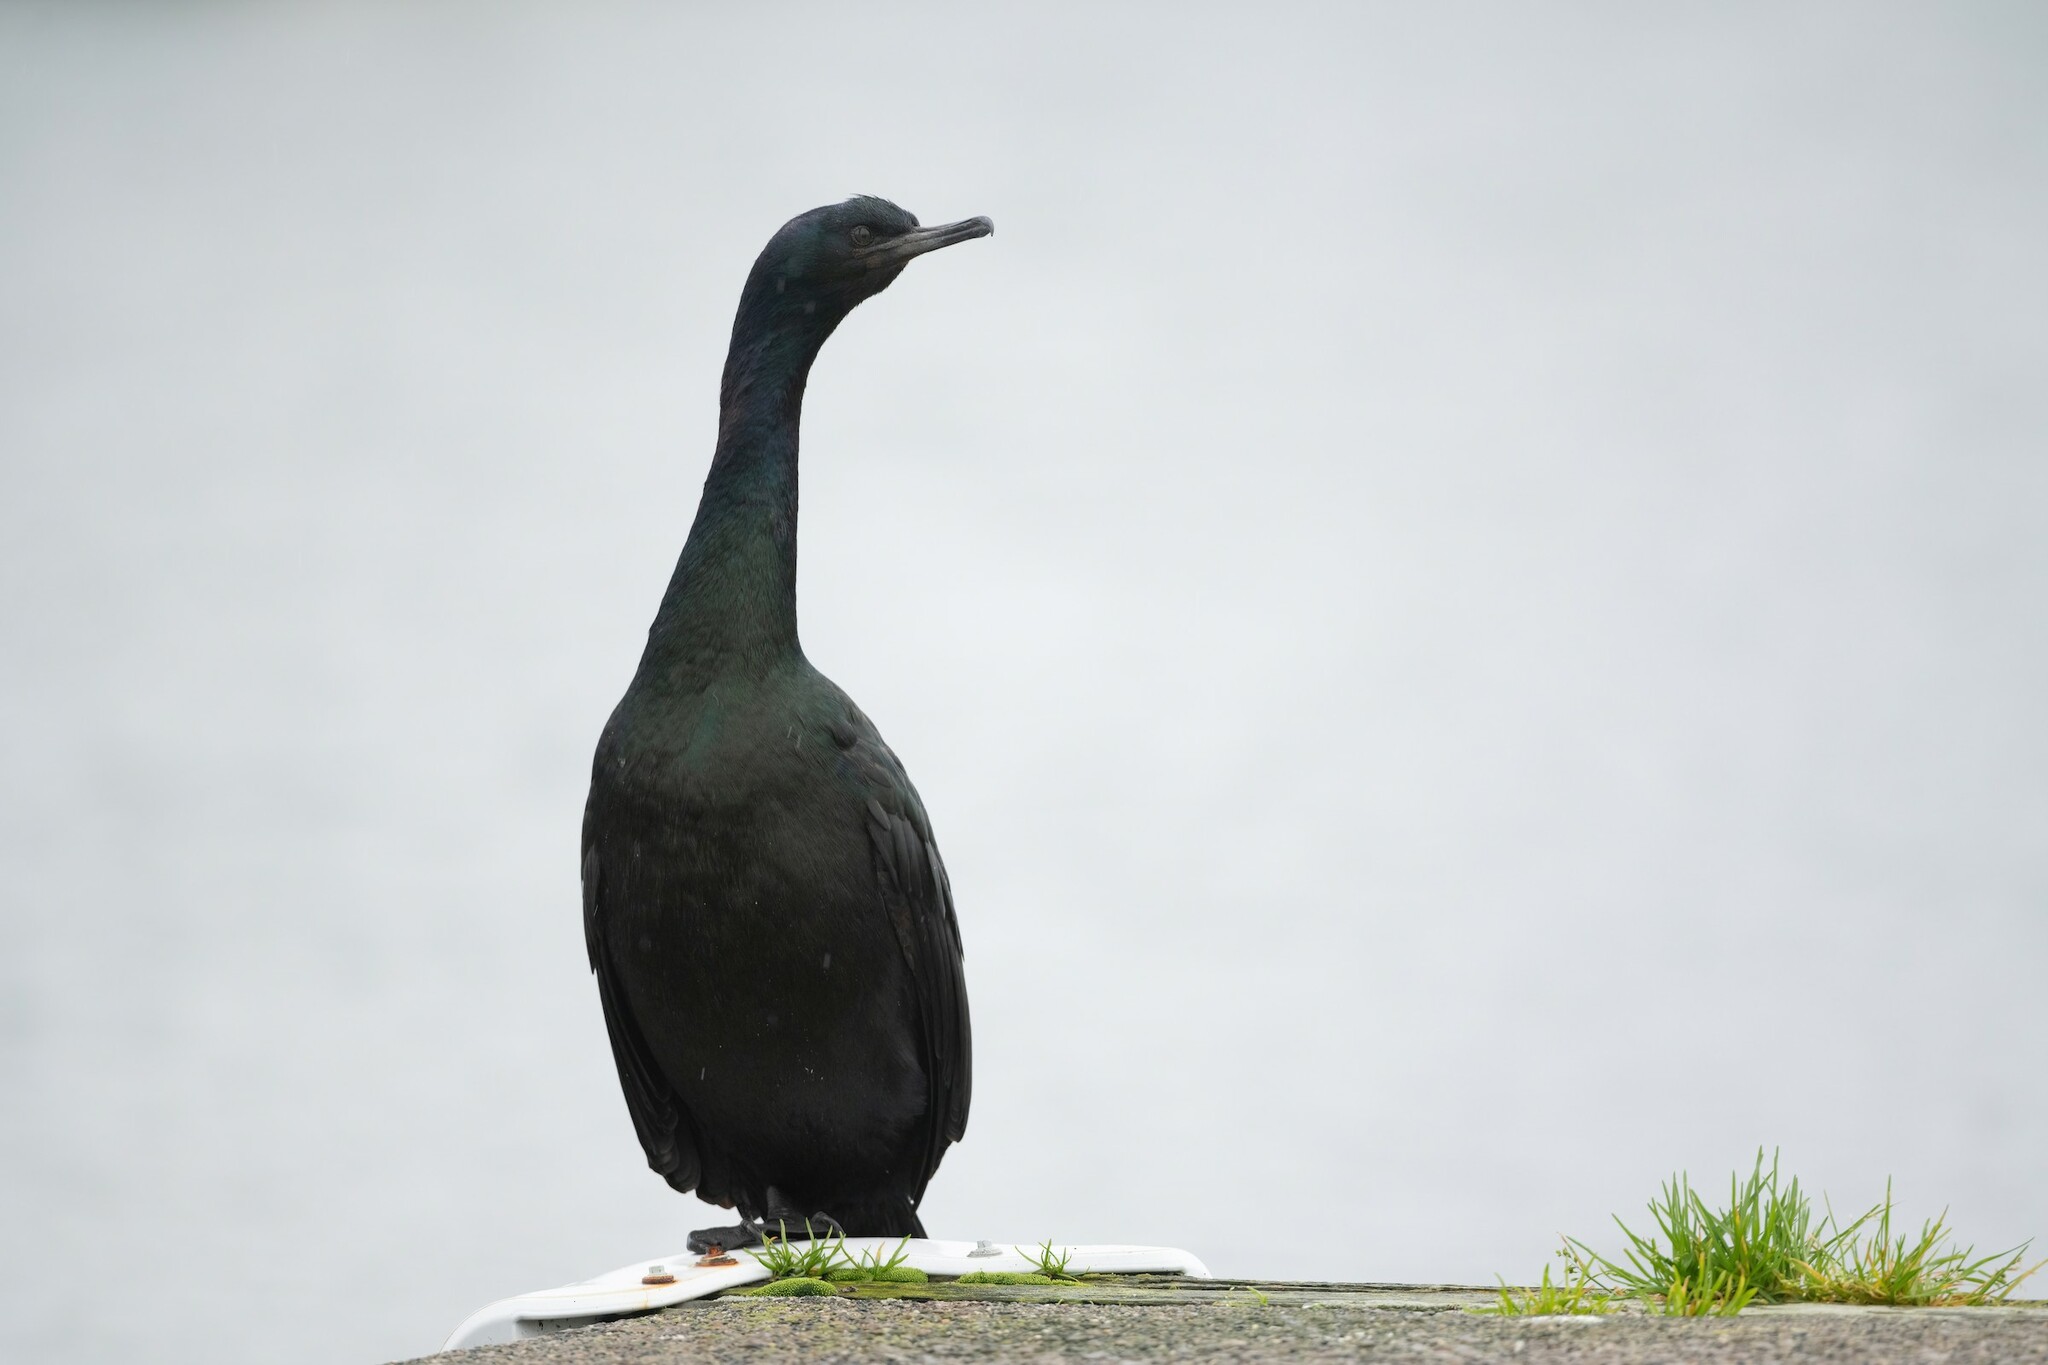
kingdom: Animalia
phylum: Chordata
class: Aves
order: Suliformes
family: Phalacrocoracidae
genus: Phalacrocorax
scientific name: Phalacrocorax pelagicus
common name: Pelagic cormorant
